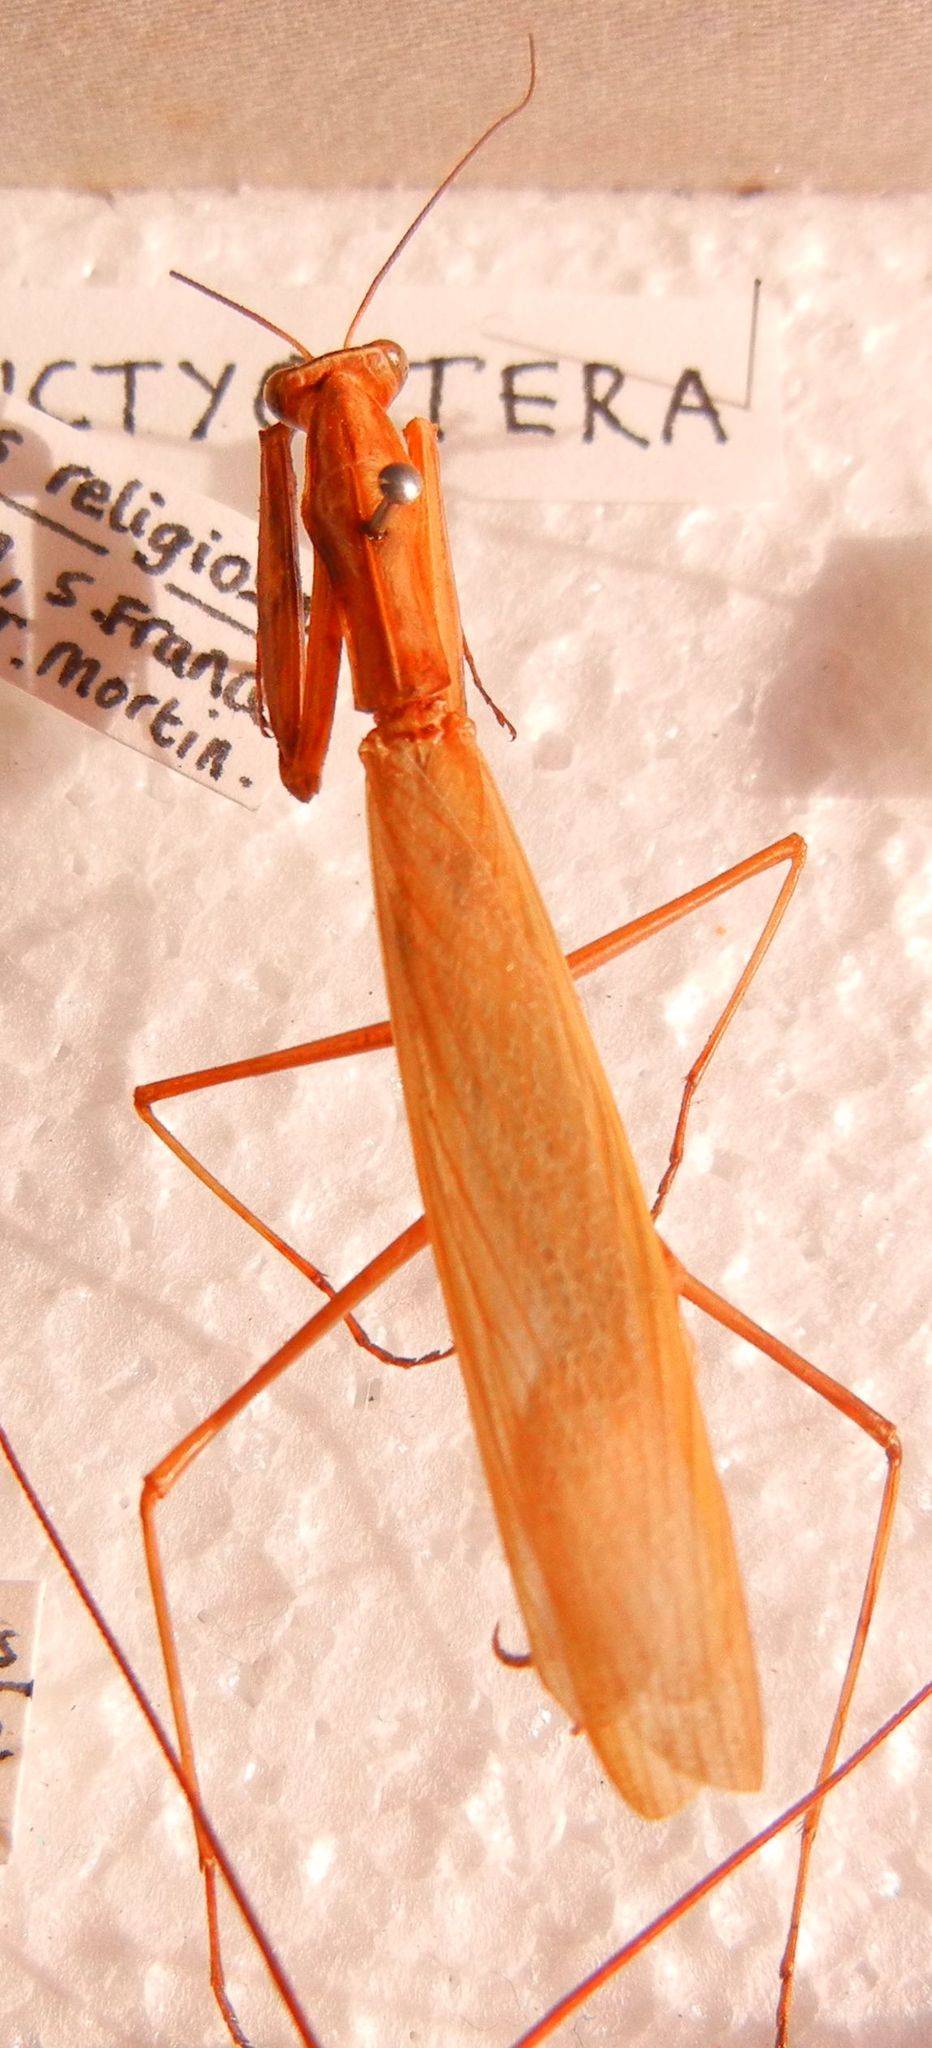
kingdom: Animalia
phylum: Arthropoda
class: Insecta
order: Mantodea
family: Mantidae
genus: Mantis
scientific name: Mantis religiosa
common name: Praying mantis
